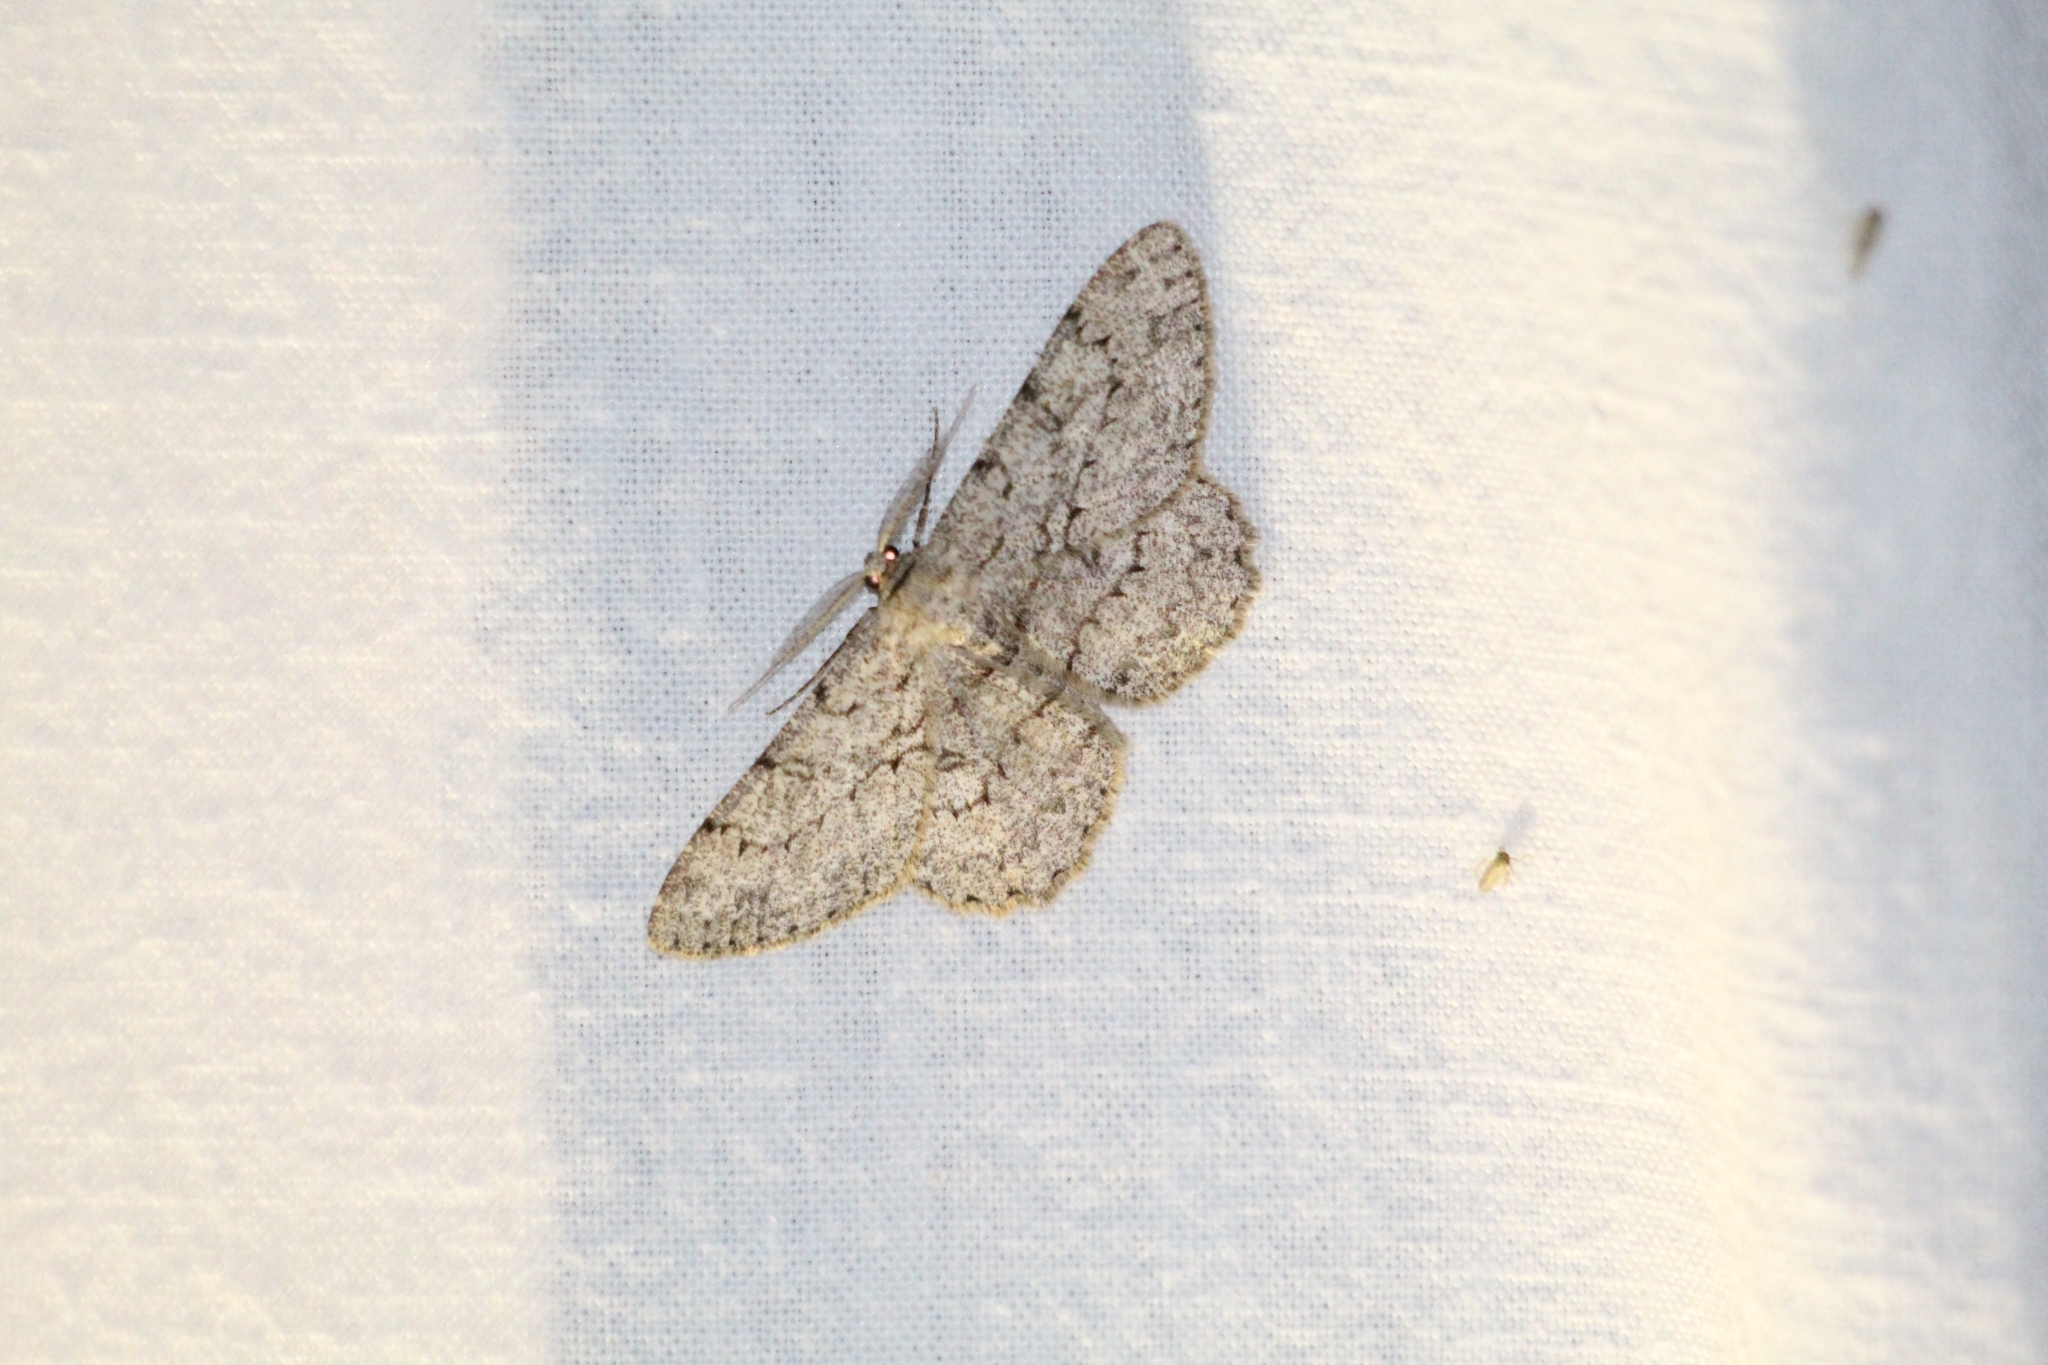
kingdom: Animalia
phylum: Arthropoda
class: Insecta
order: Lepidoptera
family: Geometridae
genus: Hypomecis
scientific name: Hypomecis punctinalis
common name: Pale oak beauty
